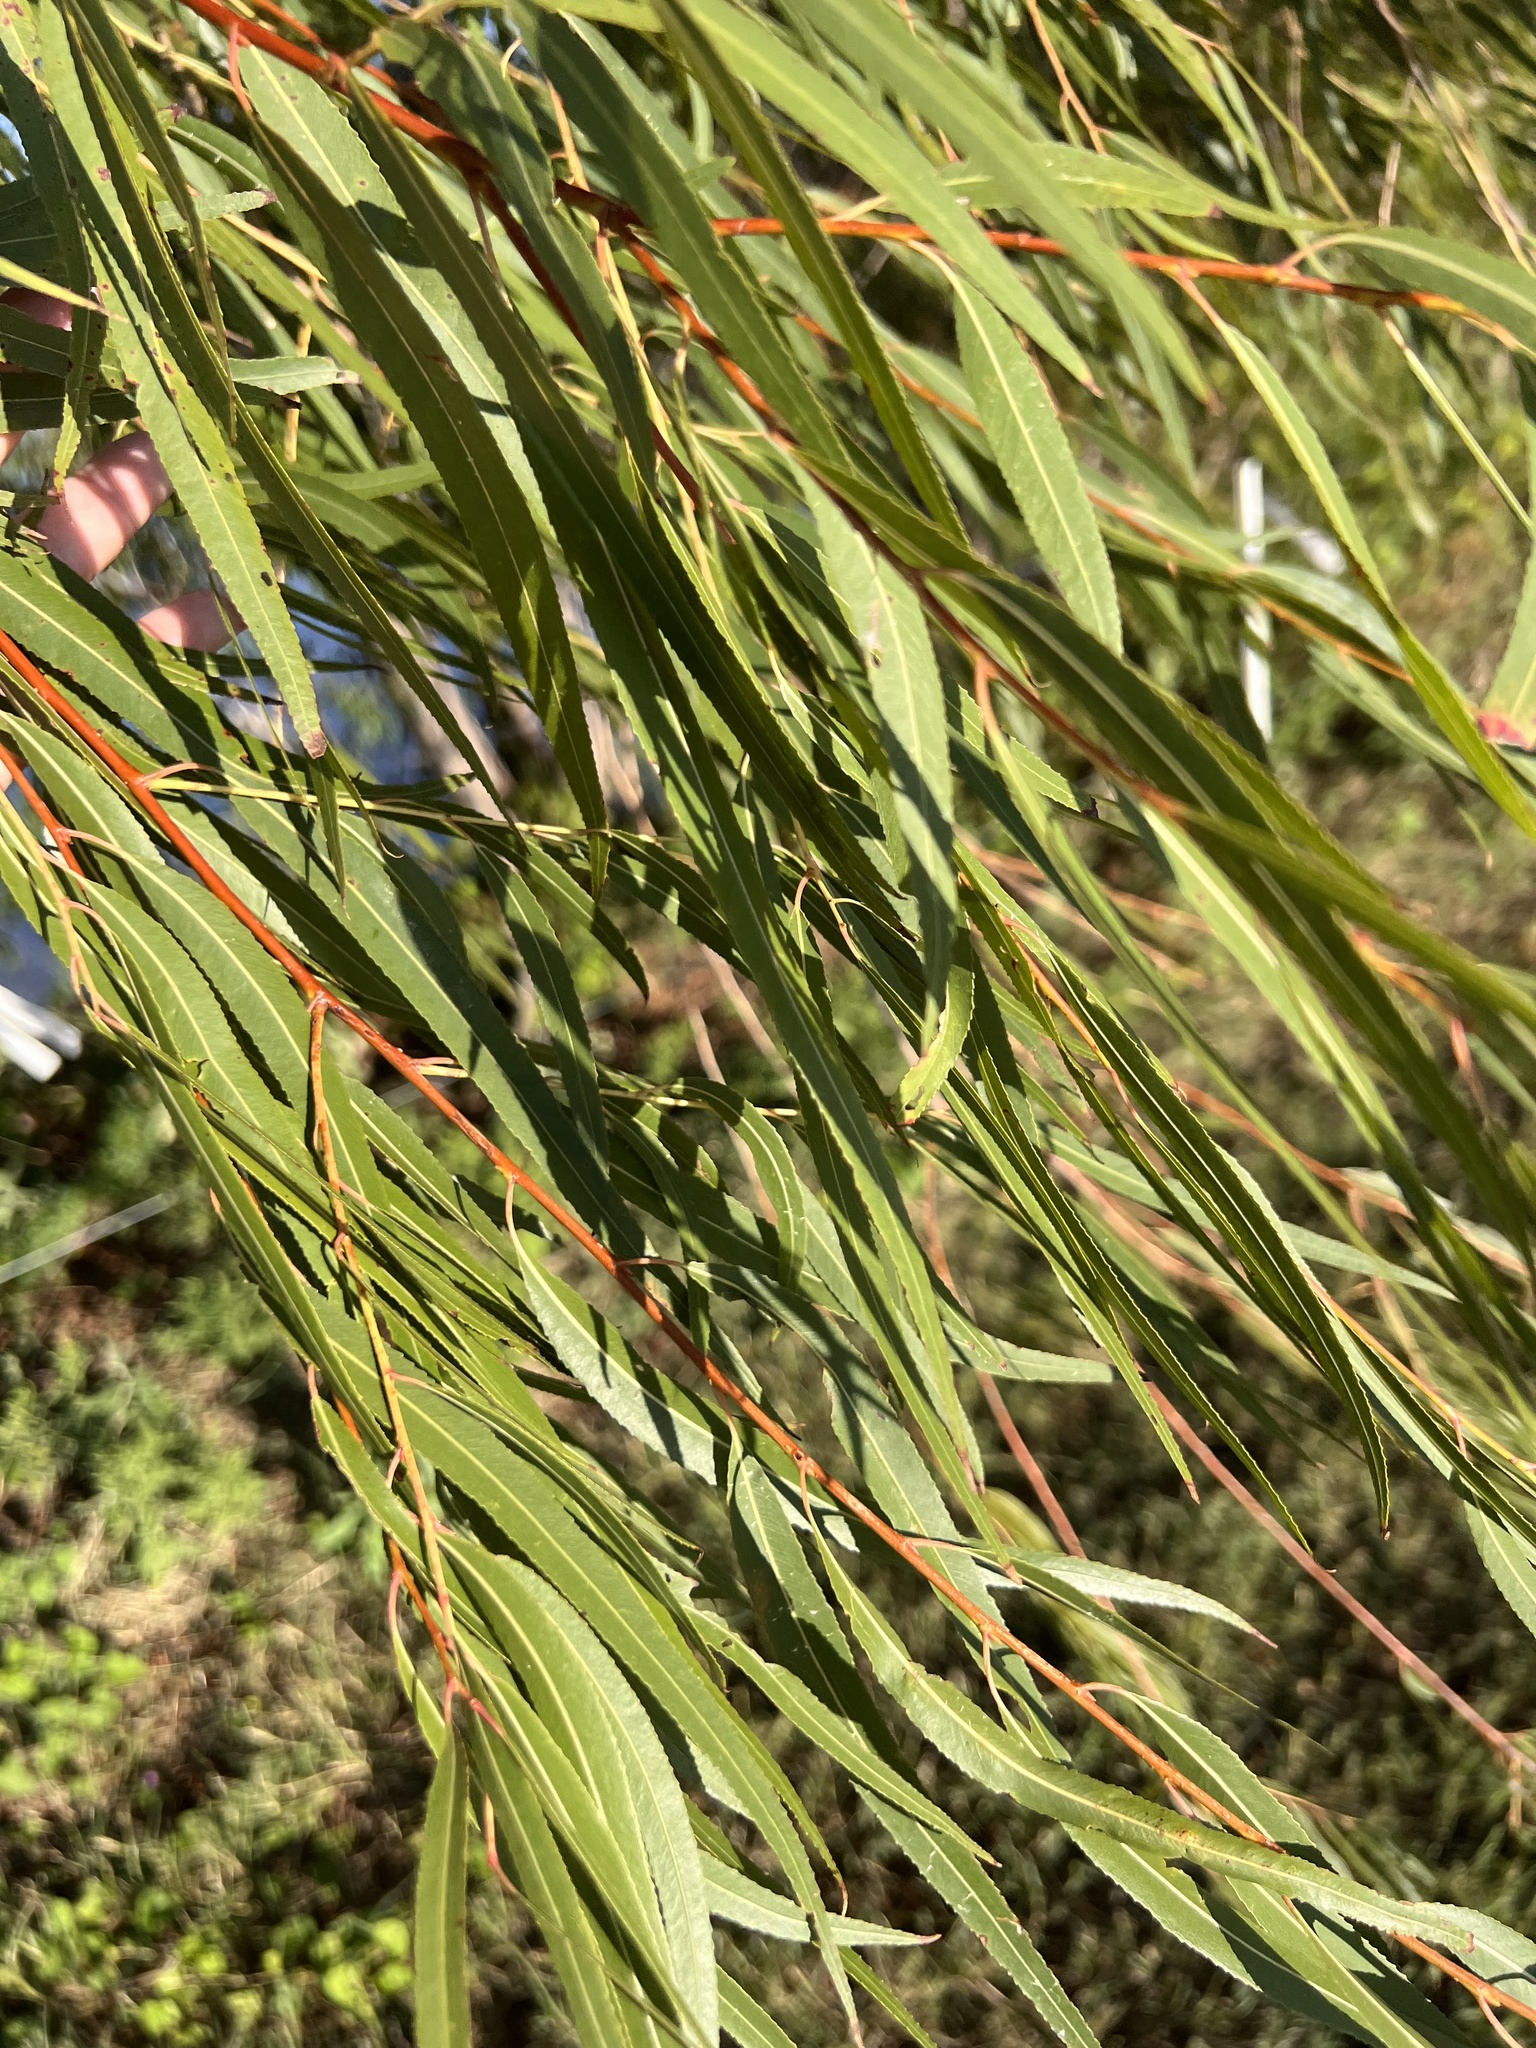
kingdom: Plantae
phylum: Tracheophyta
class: Magnoliopsida
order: Malpighiales
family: Salicaceae
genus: Salix
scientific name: Salix nigra
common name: Black willow
